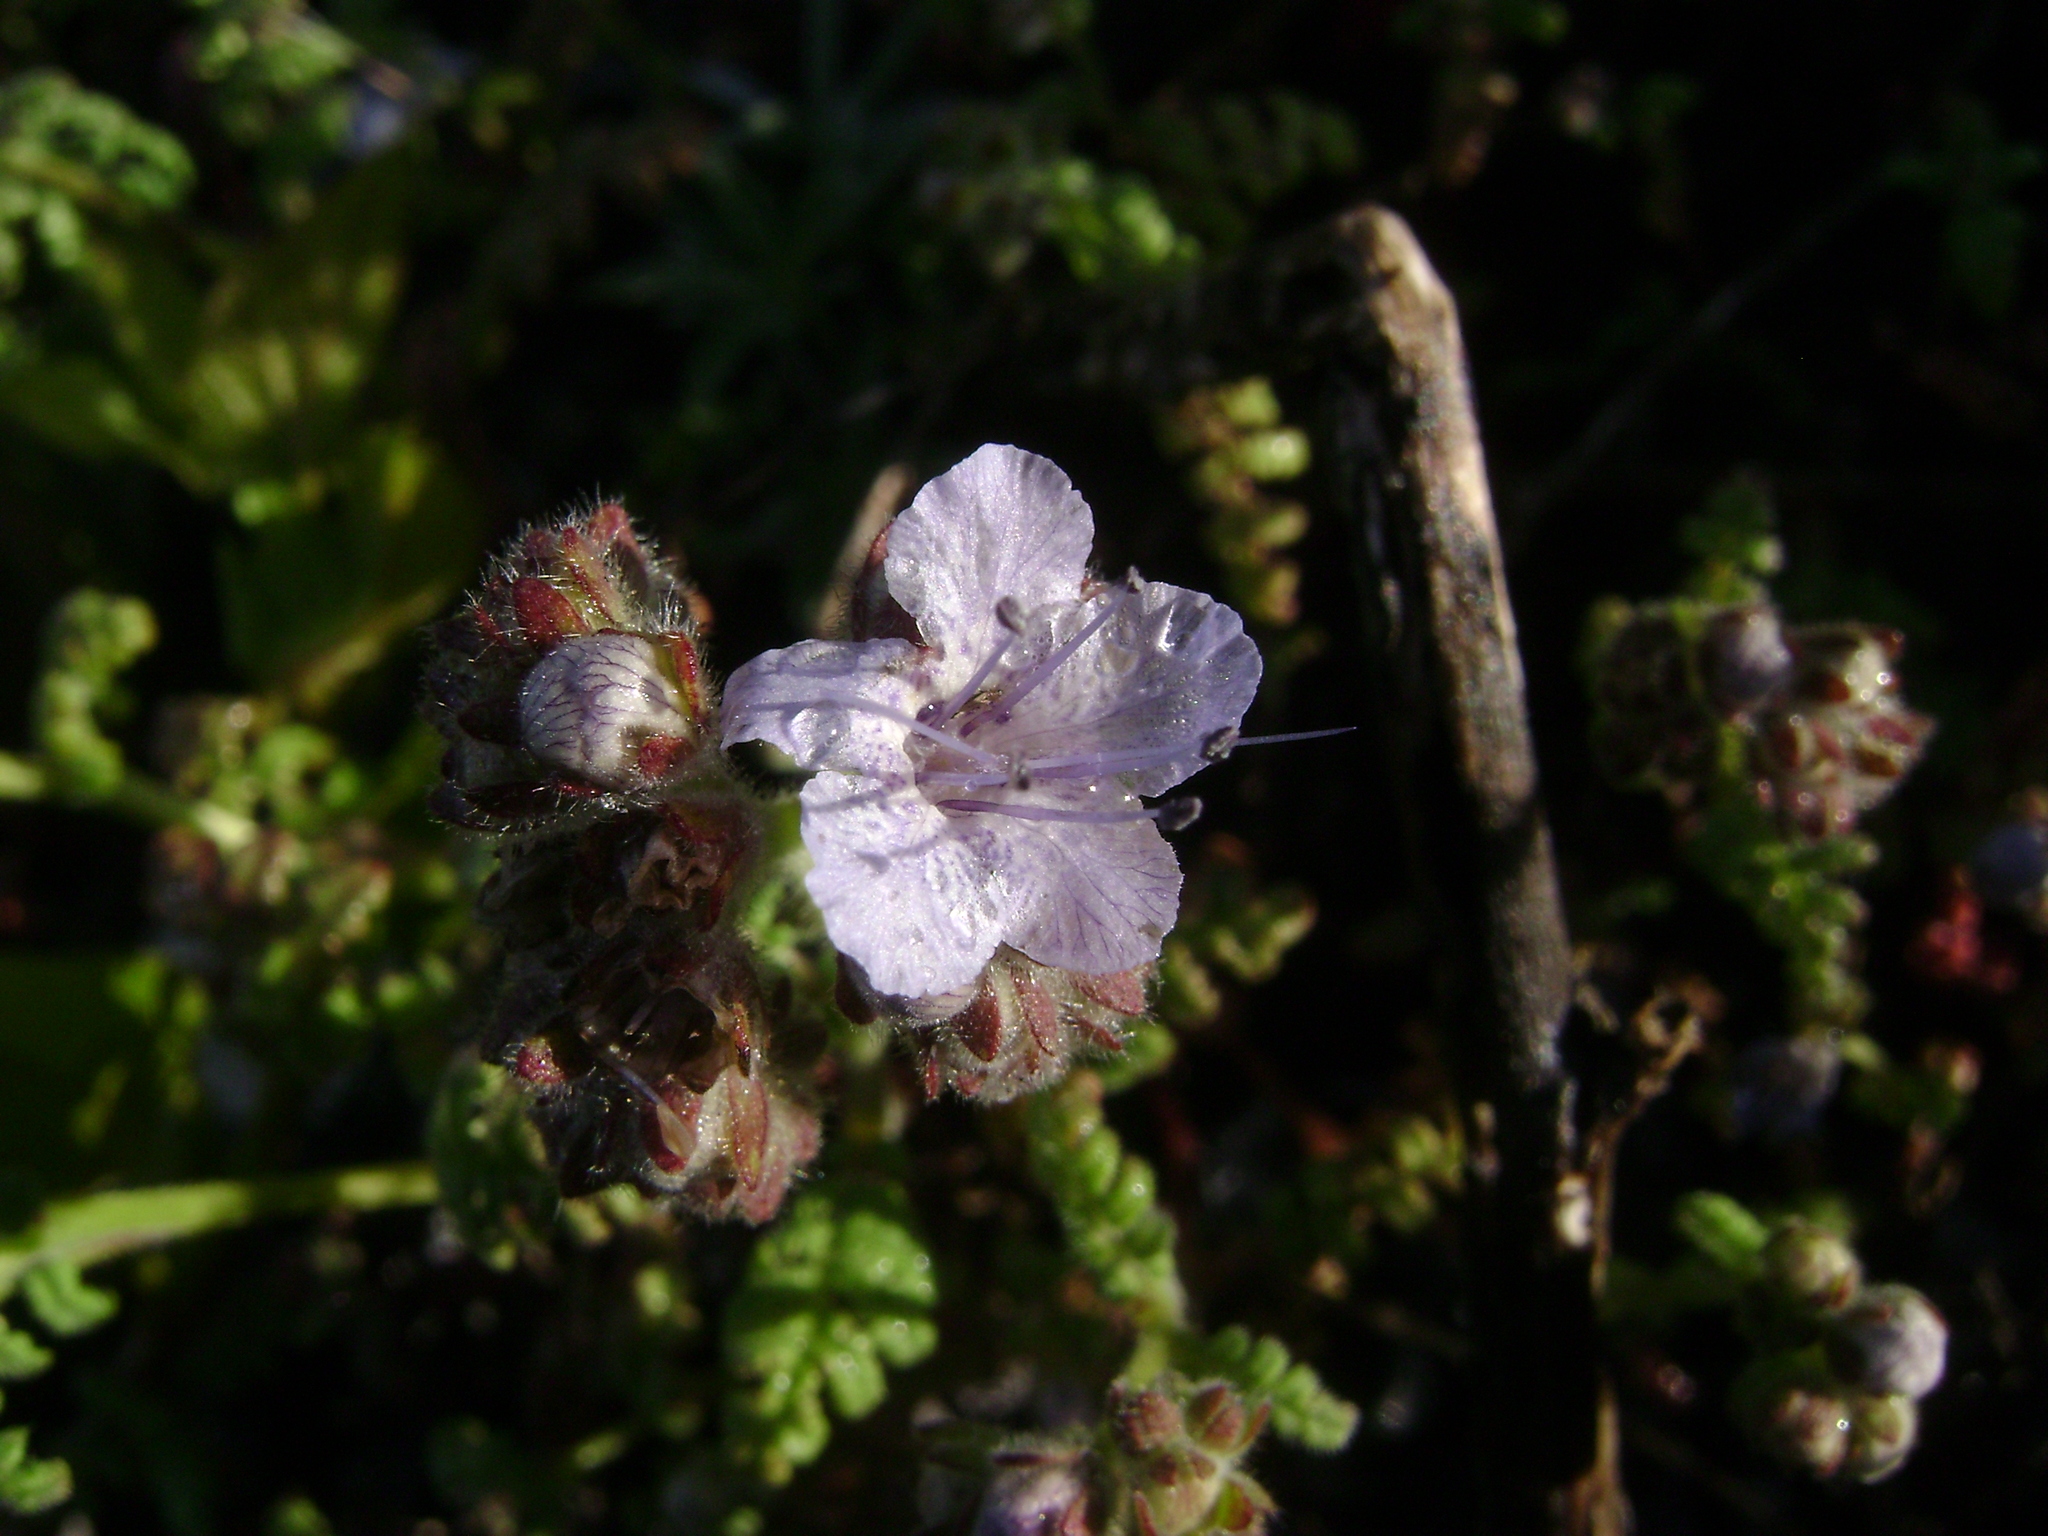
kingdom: Plantae
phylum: Tracheophyta
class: Magnoliopsida
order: Boraginales
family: Hydrophyllaceae
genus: Phacelia
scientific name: Phacelia distans
